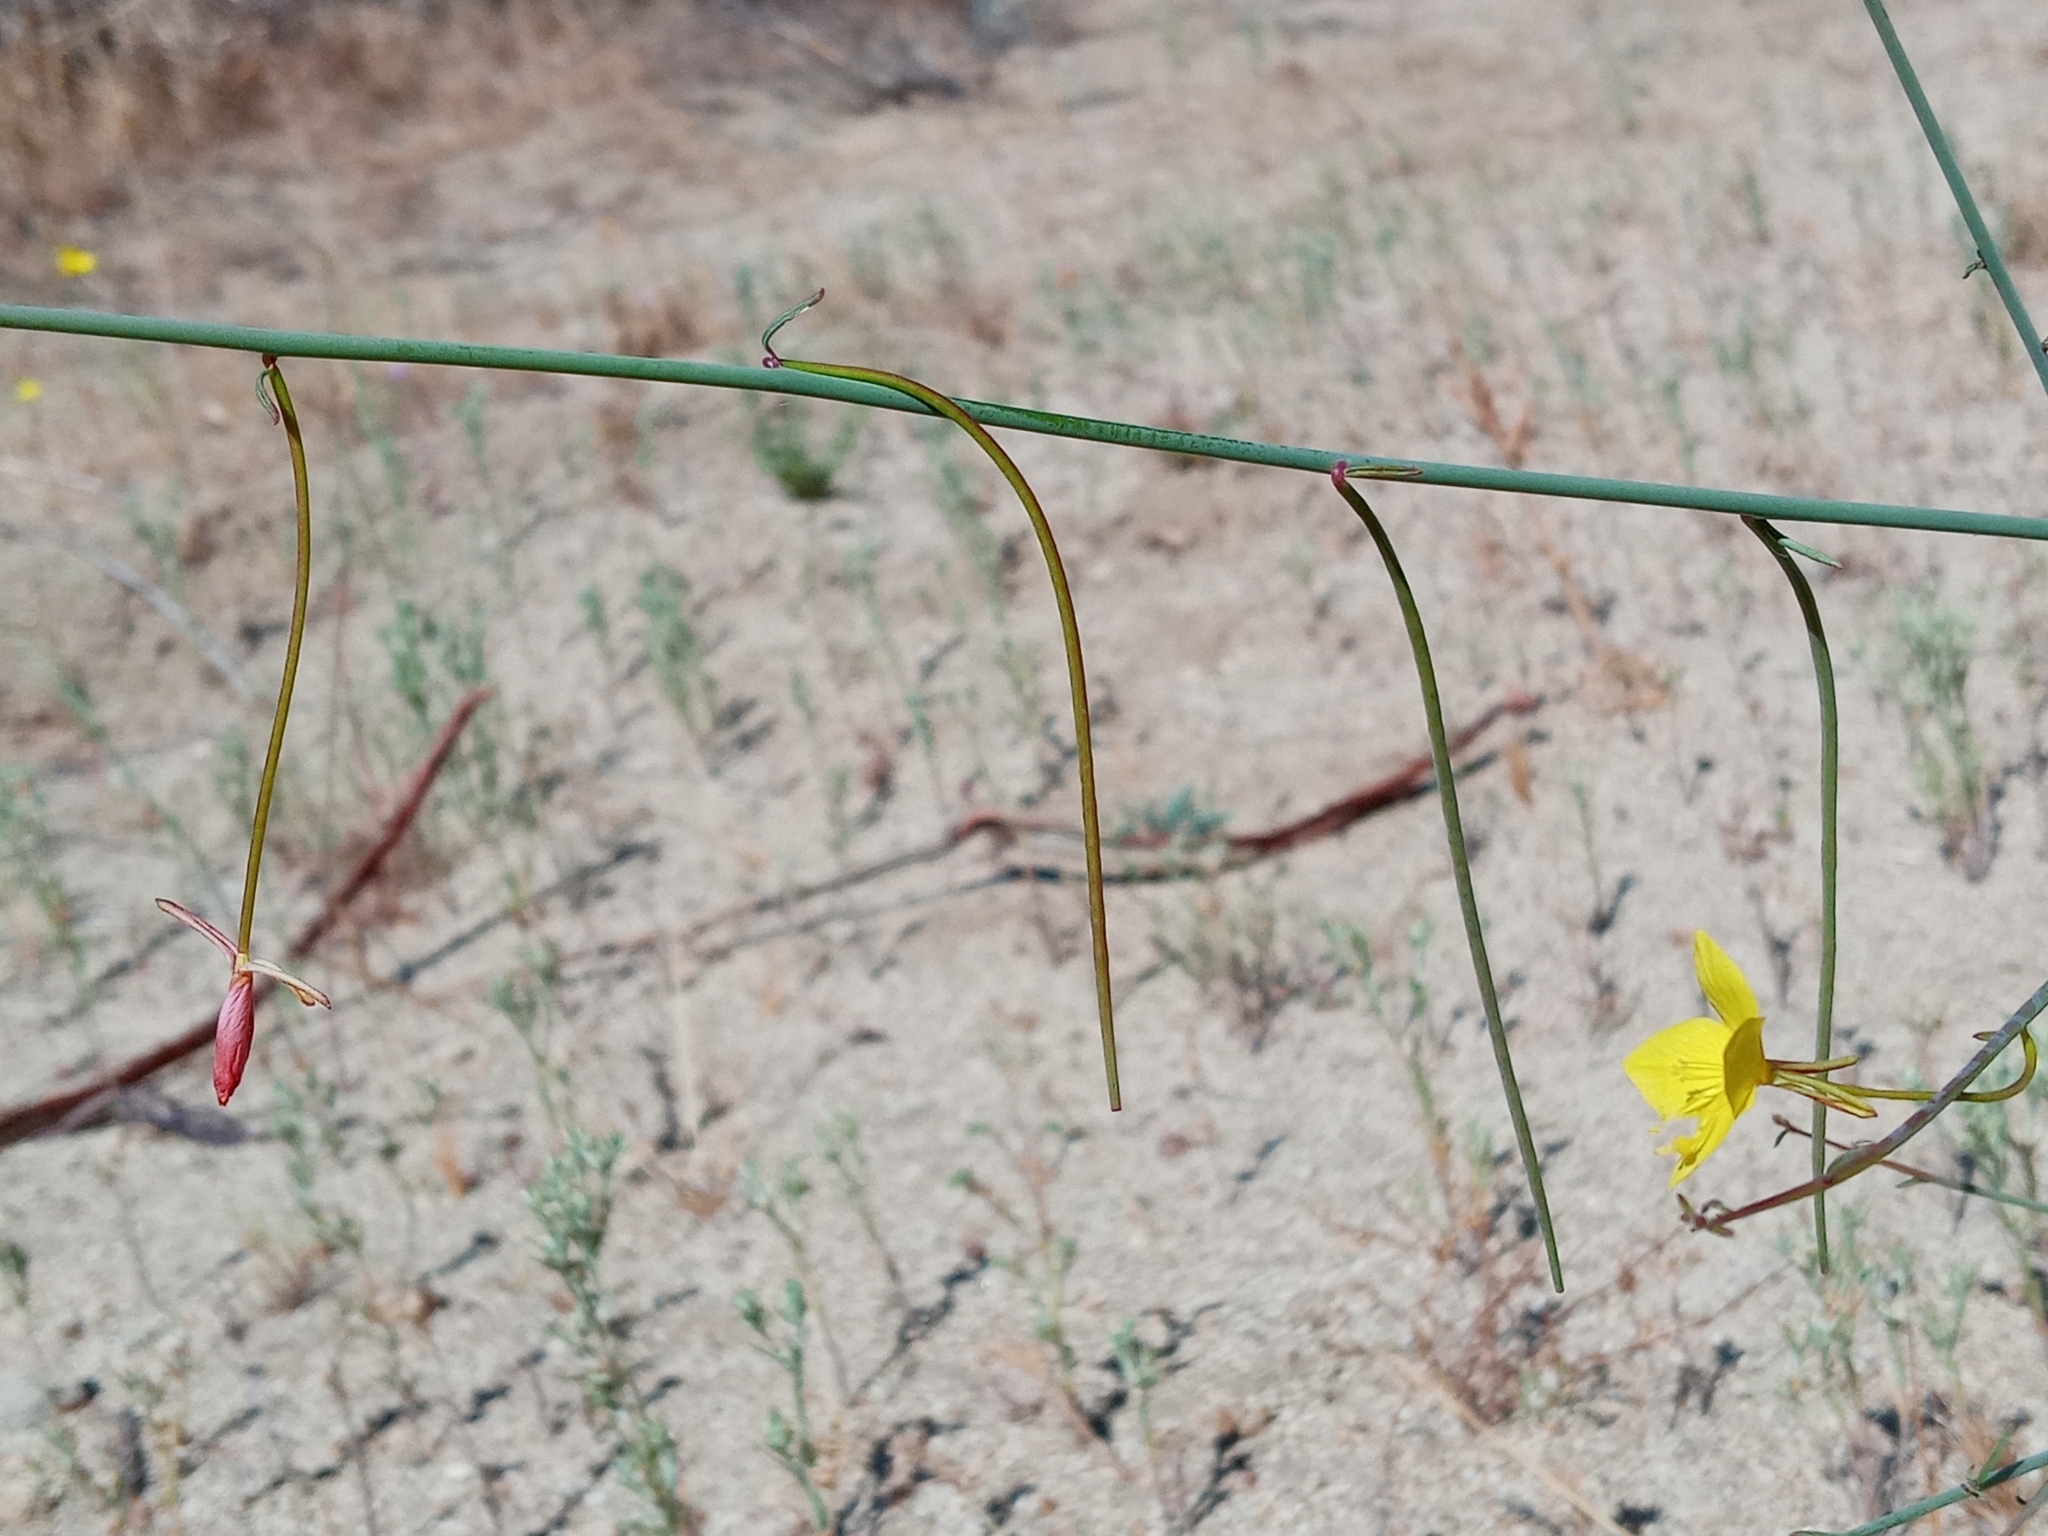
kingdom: Plantae
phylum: Tracheophyta
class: Magnoliopsida
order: Myrtales
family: Onagraceae
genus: Eulobus
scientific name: Eulobus californicus
